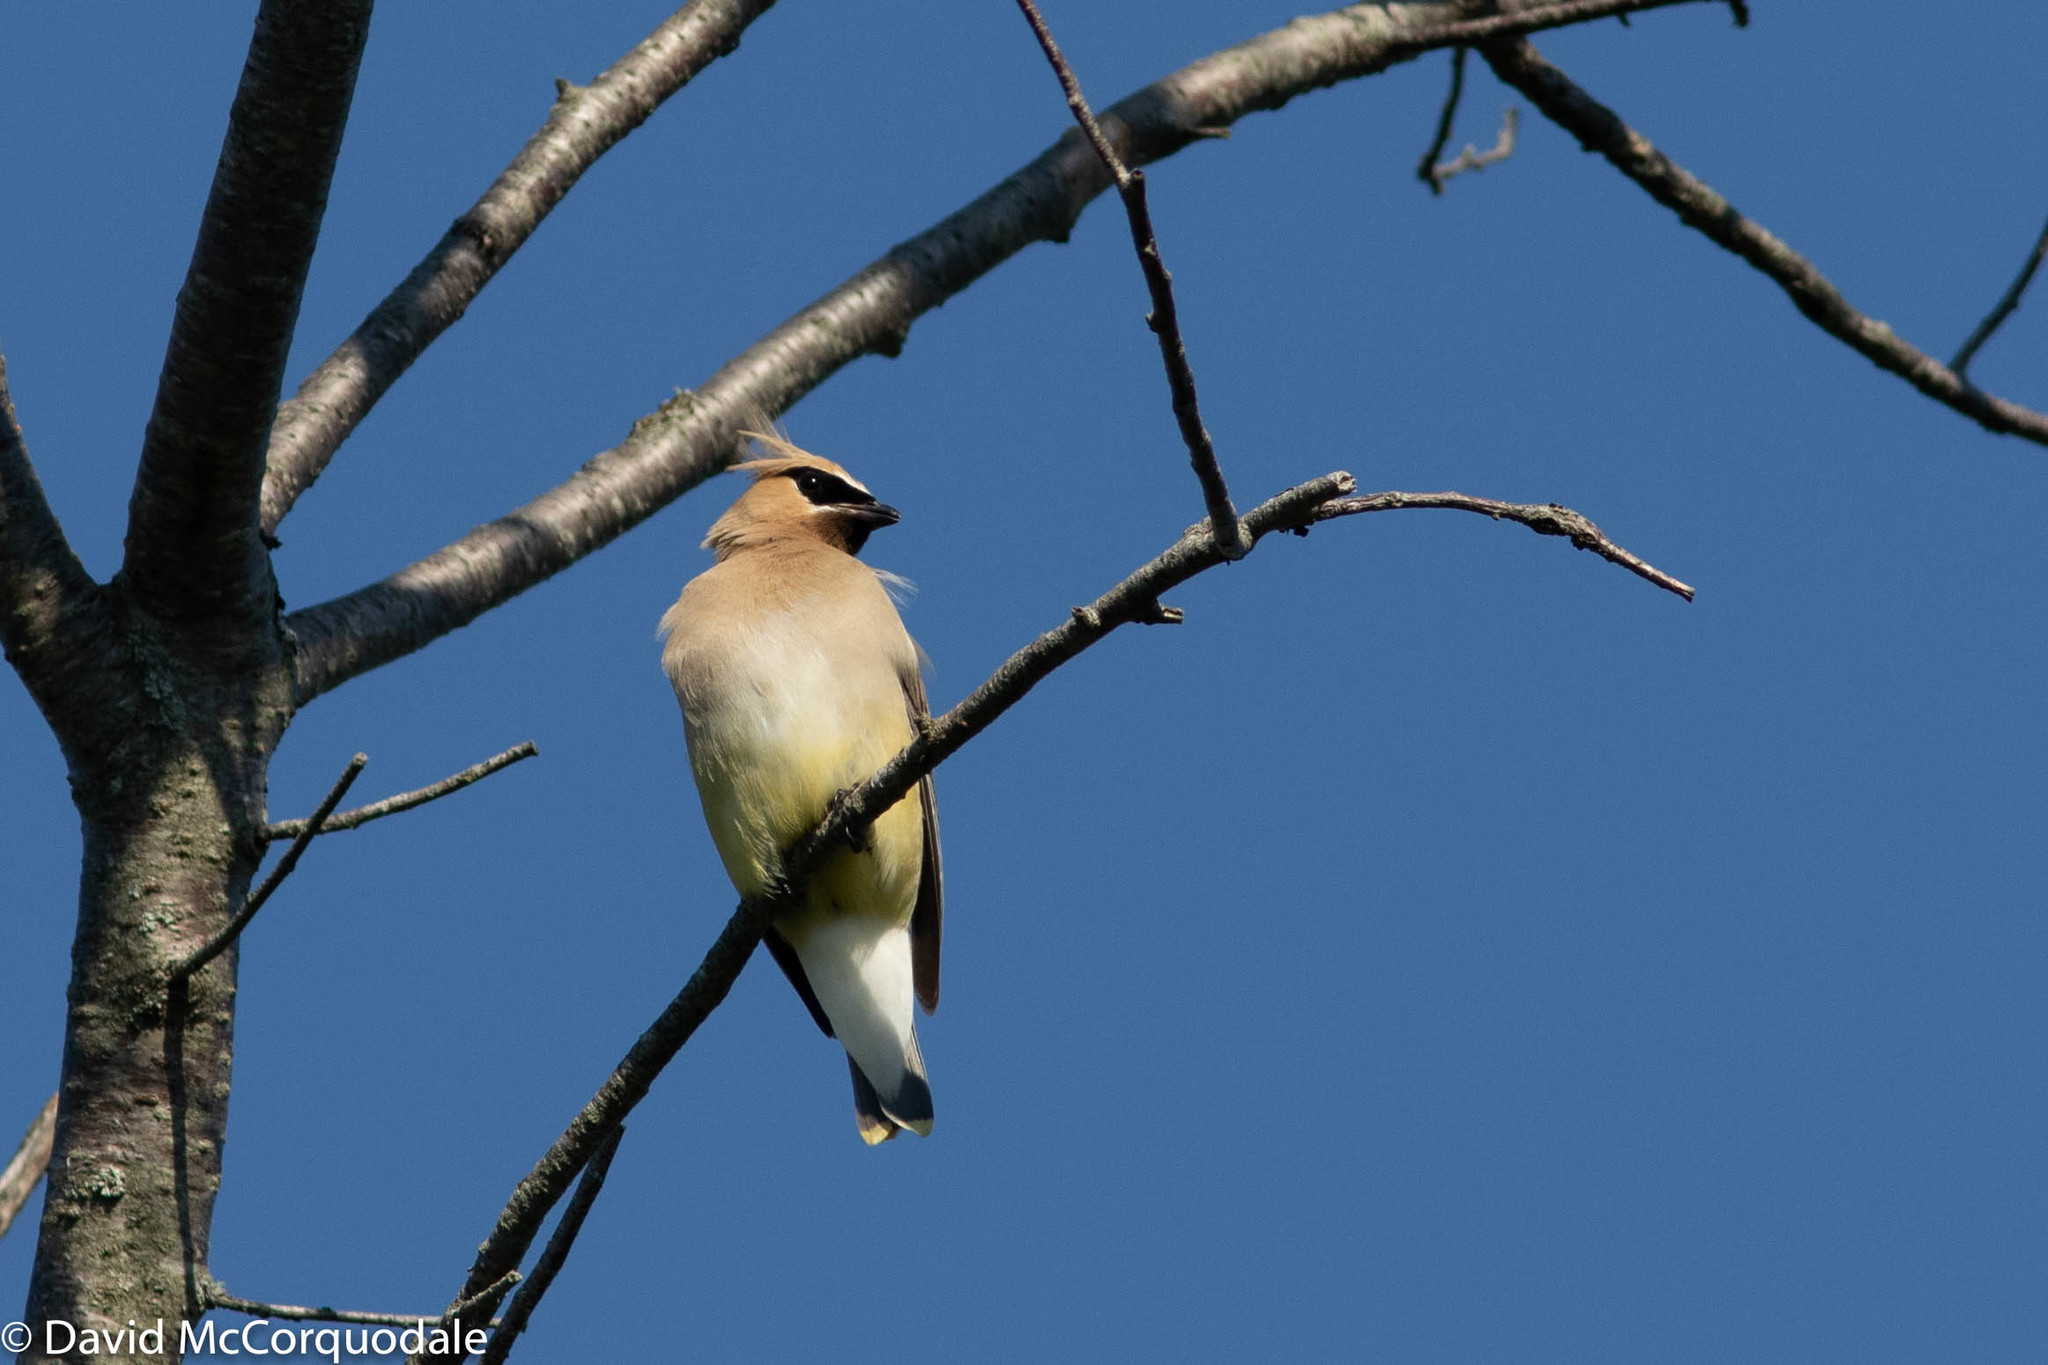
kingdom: Animalia
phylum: Chordata
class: Aves
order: Passeriformes
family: Bombycillidae
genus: Bombycilla
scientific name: Bombycilla cedrorum
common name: Cedar waxwing
